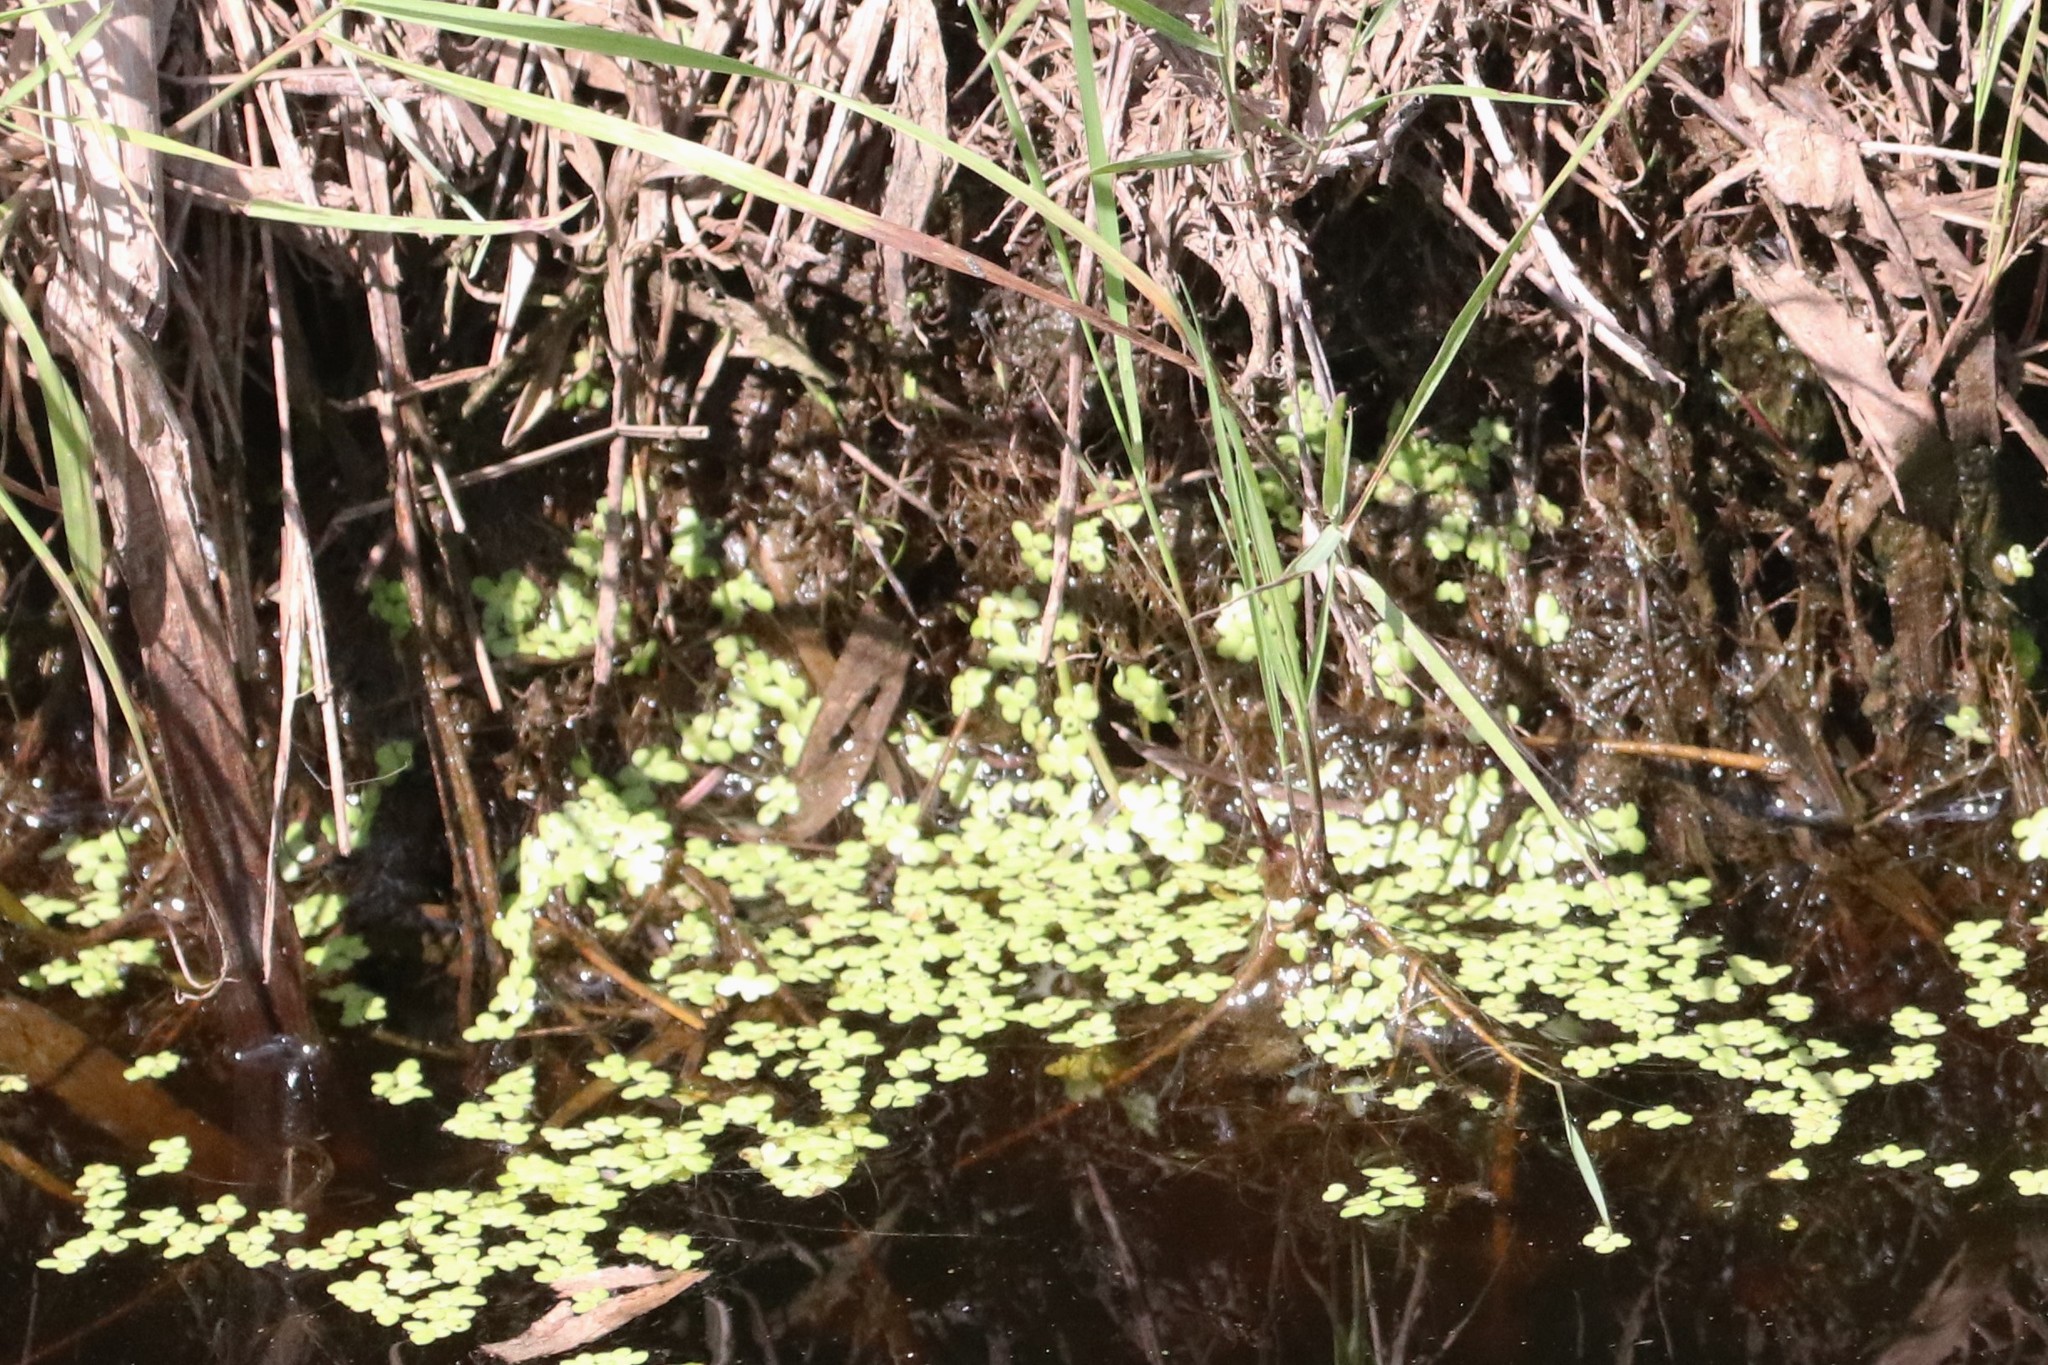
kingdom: Plantae
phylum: Tracheophyta
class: Liliopsida
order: Alismatales
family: Araceae
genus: Lemna
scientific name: Lemna minor
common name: Common duckweed
